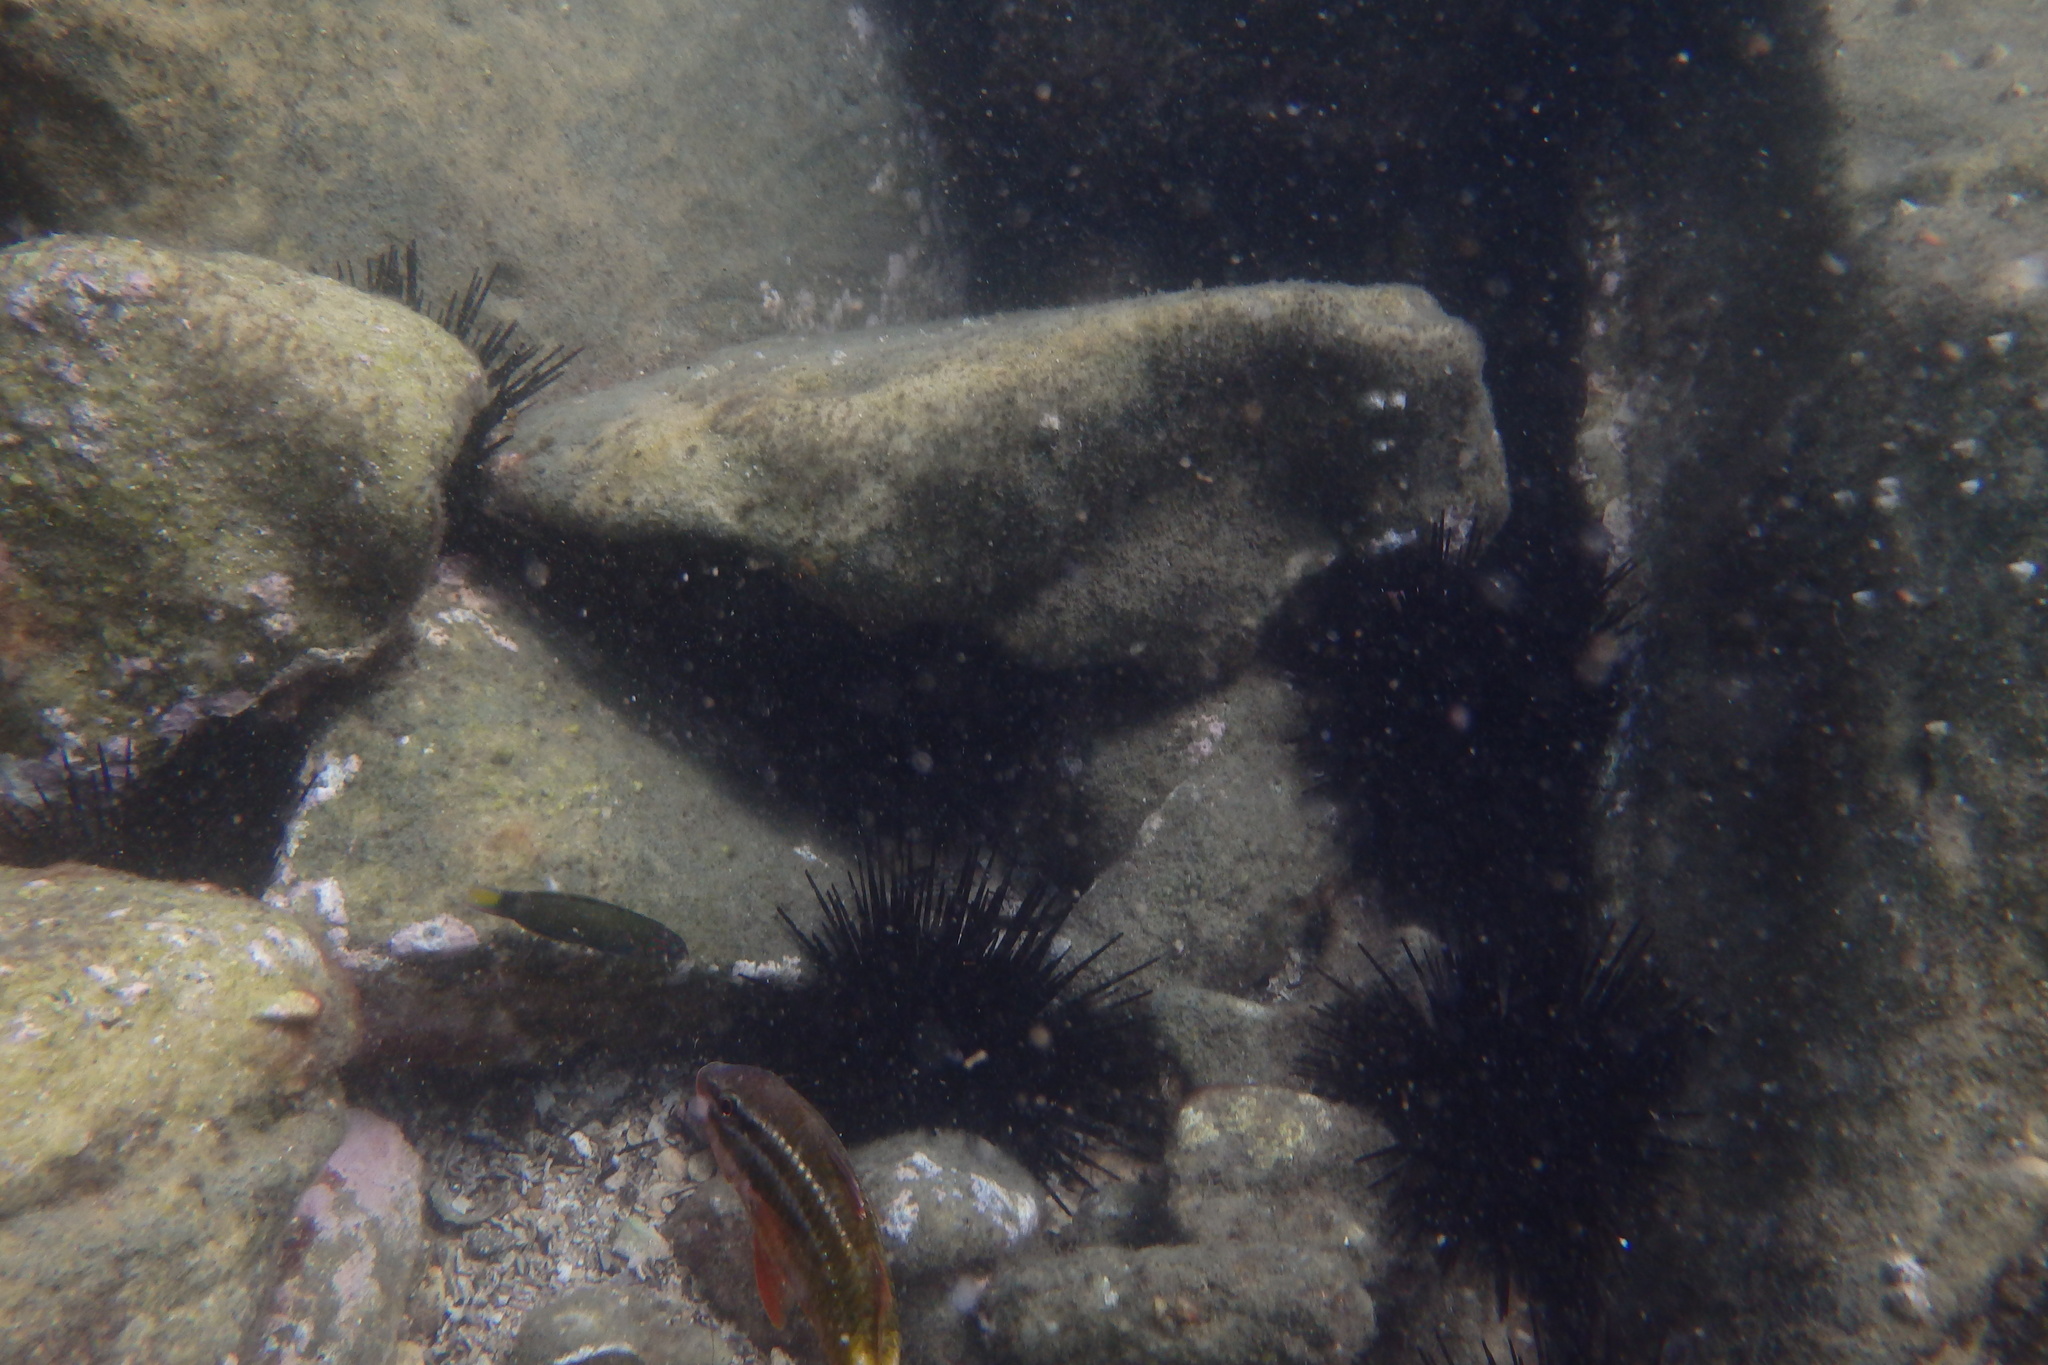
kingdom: Animalia
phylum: Chordata
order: Perciformes
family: Labridae
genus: Thalassoma
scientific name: Thalassoma lunare
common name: Blue wrasse
